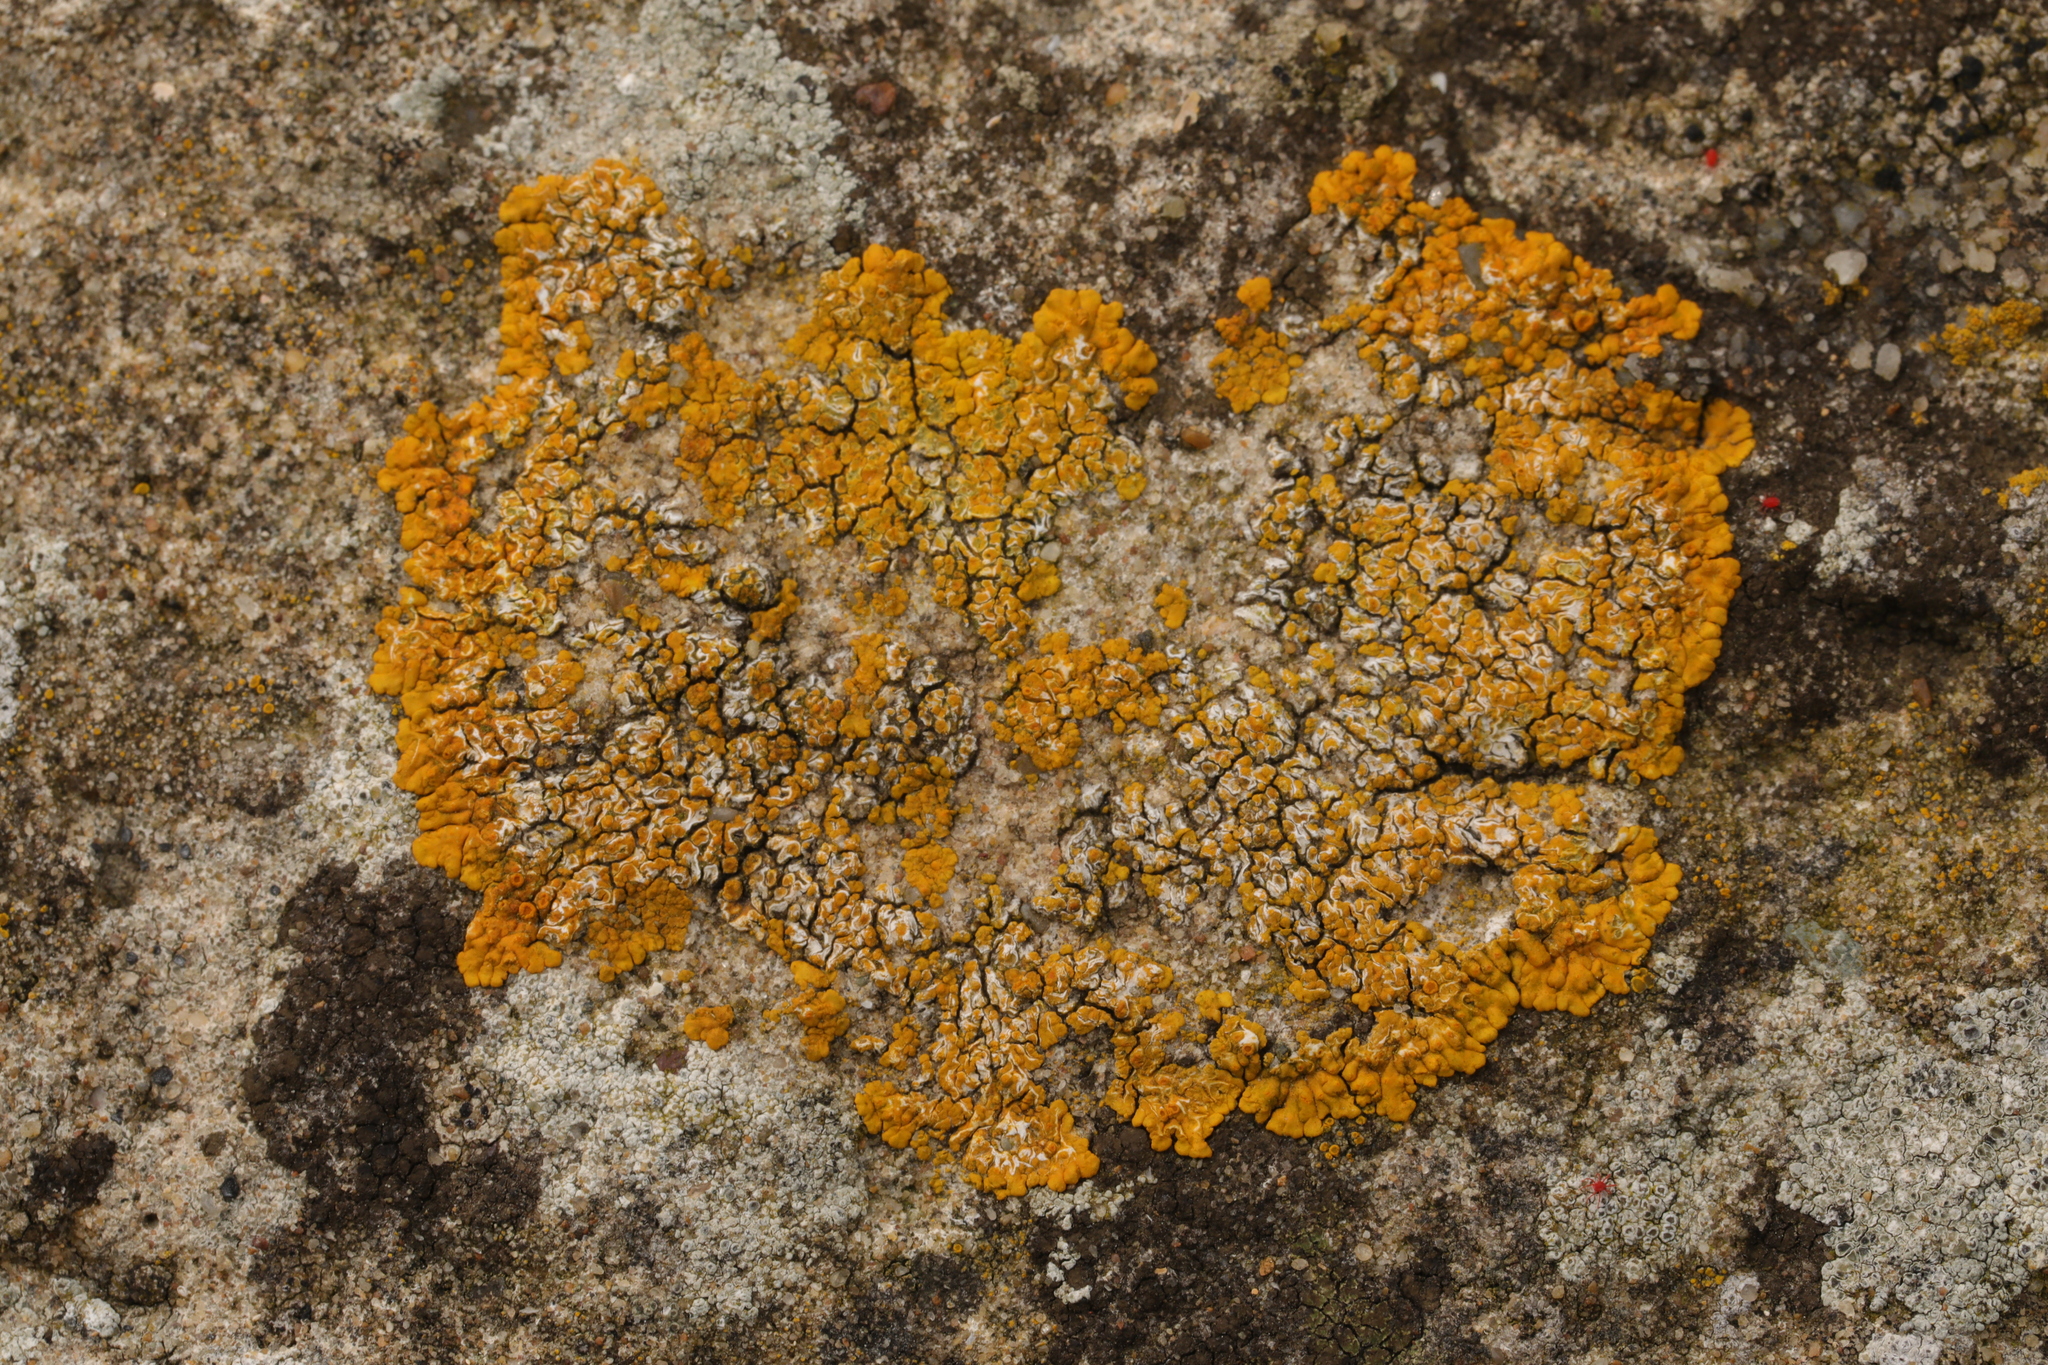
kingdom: Fungi
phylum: Ascomycota
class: Lecanoromycetes
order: Teloschistales
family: Teloschistaceae
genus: Variospora
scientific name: Variospora flavescens
